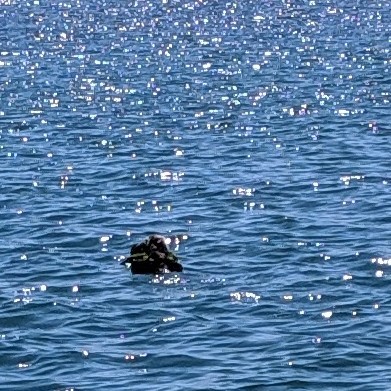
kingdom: Animalia
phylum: Chordata
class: Mammalia
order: Carnivora
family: Mustelidae
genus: Enhydra
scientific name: Enhydra lutris
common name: Sea otter
